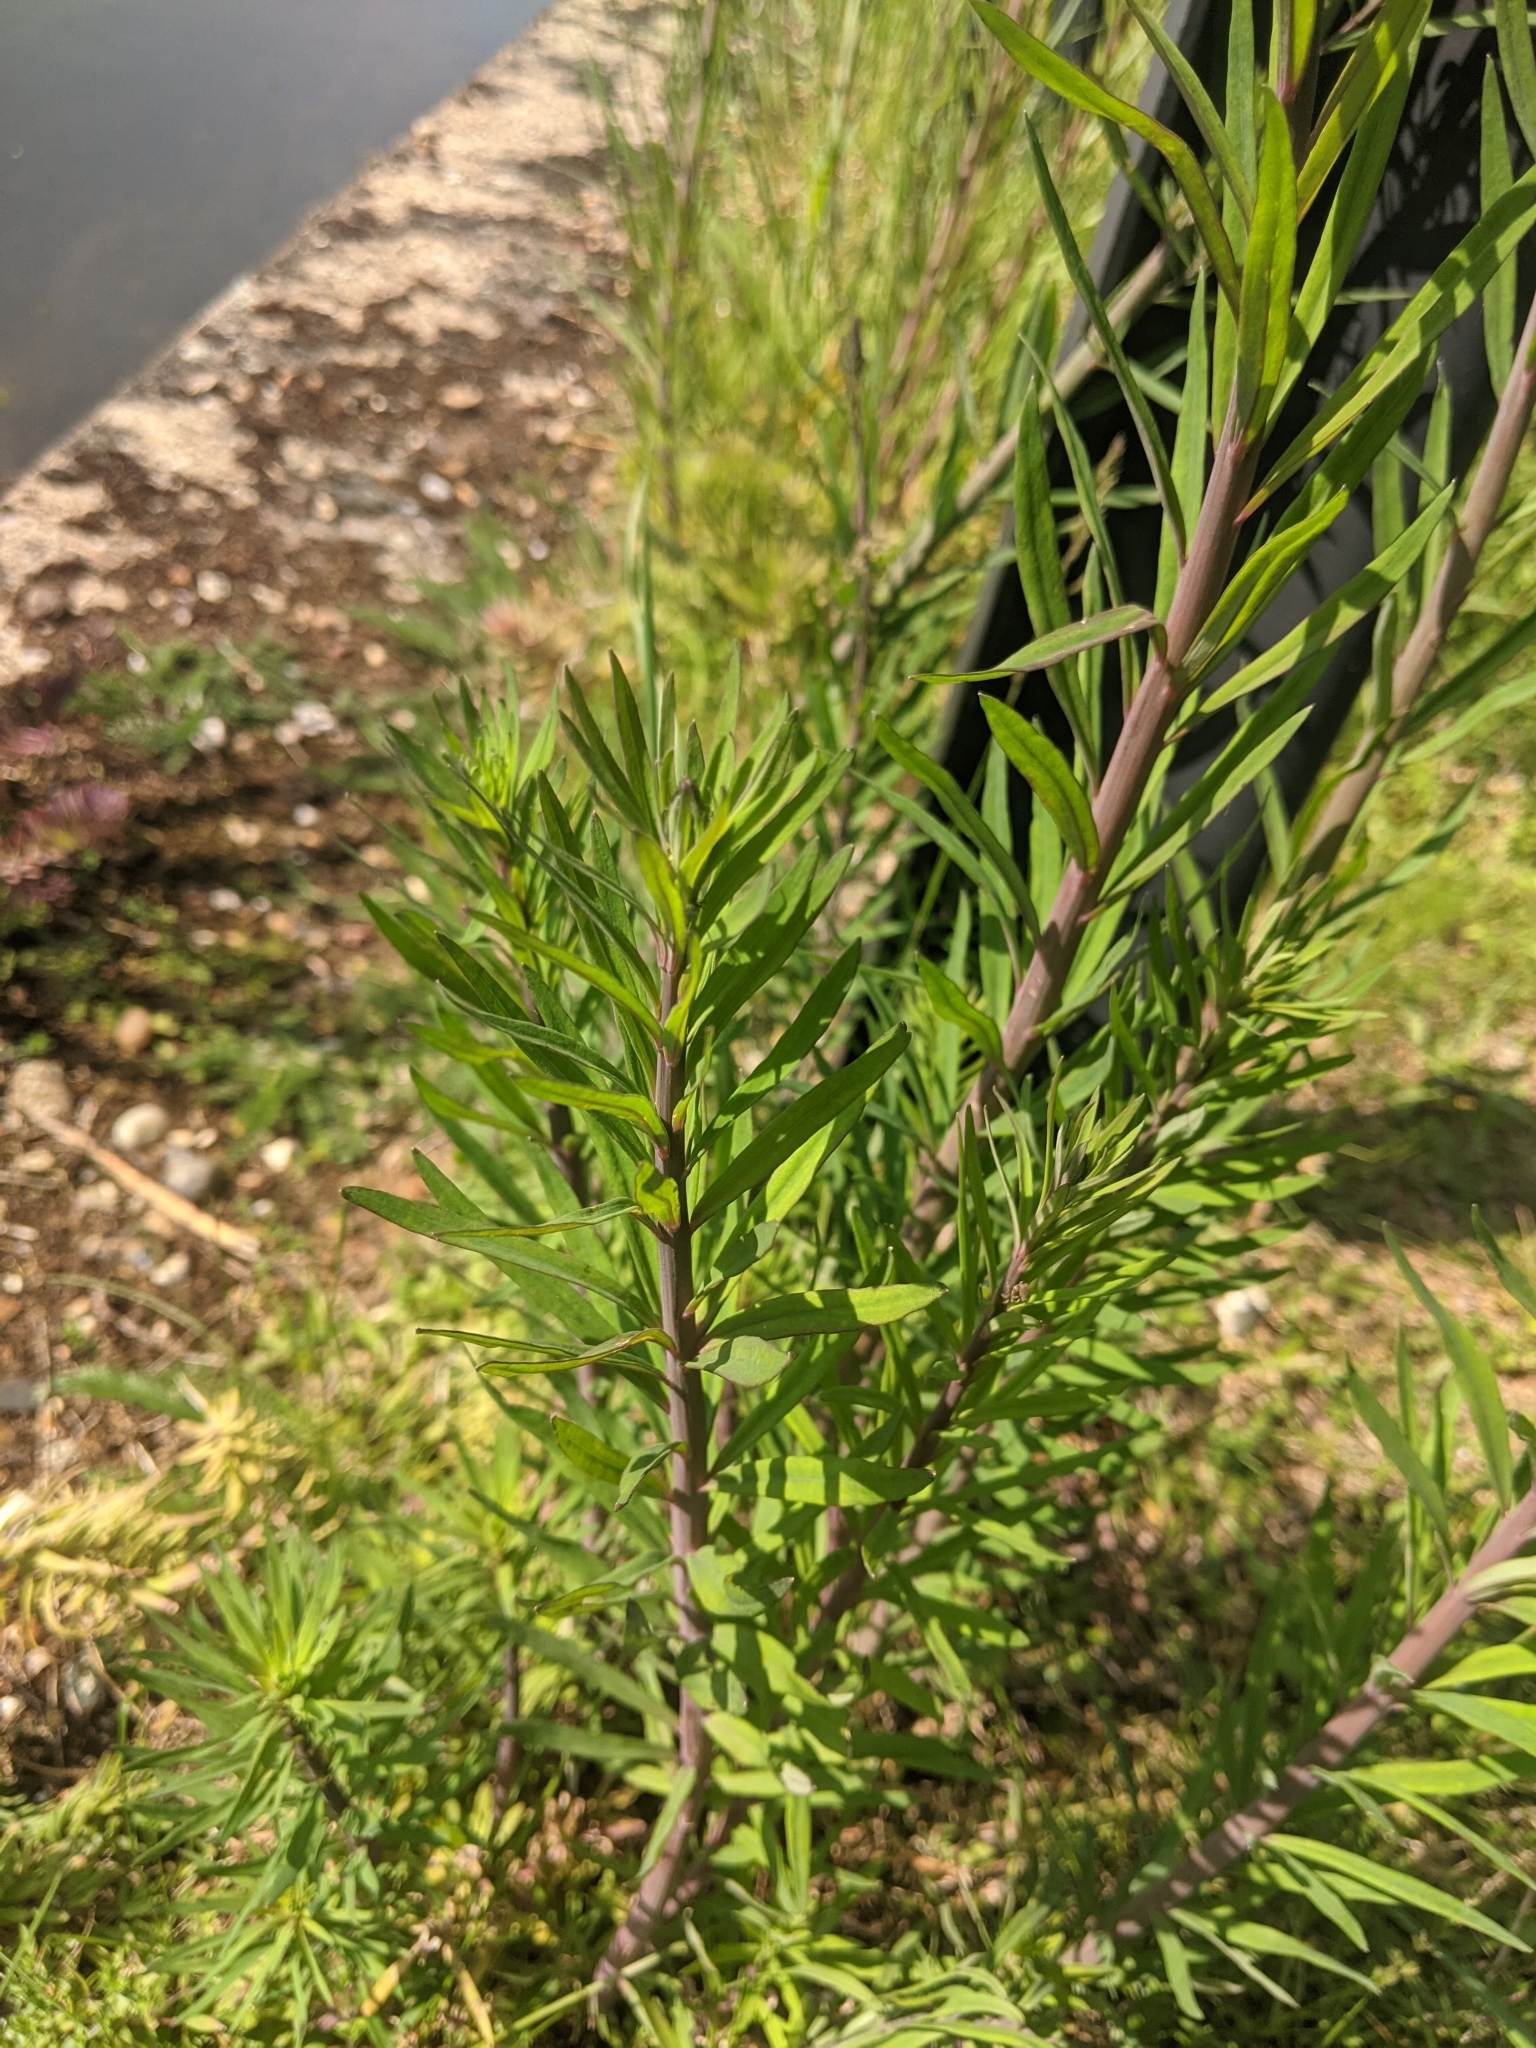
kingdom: Plantae
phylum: Tracheophyta
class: Magnoliopsida
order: Lamiales
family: Plantaginaceae
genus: Linaria
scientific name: Linaria purpurea
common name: Purple toadflax
